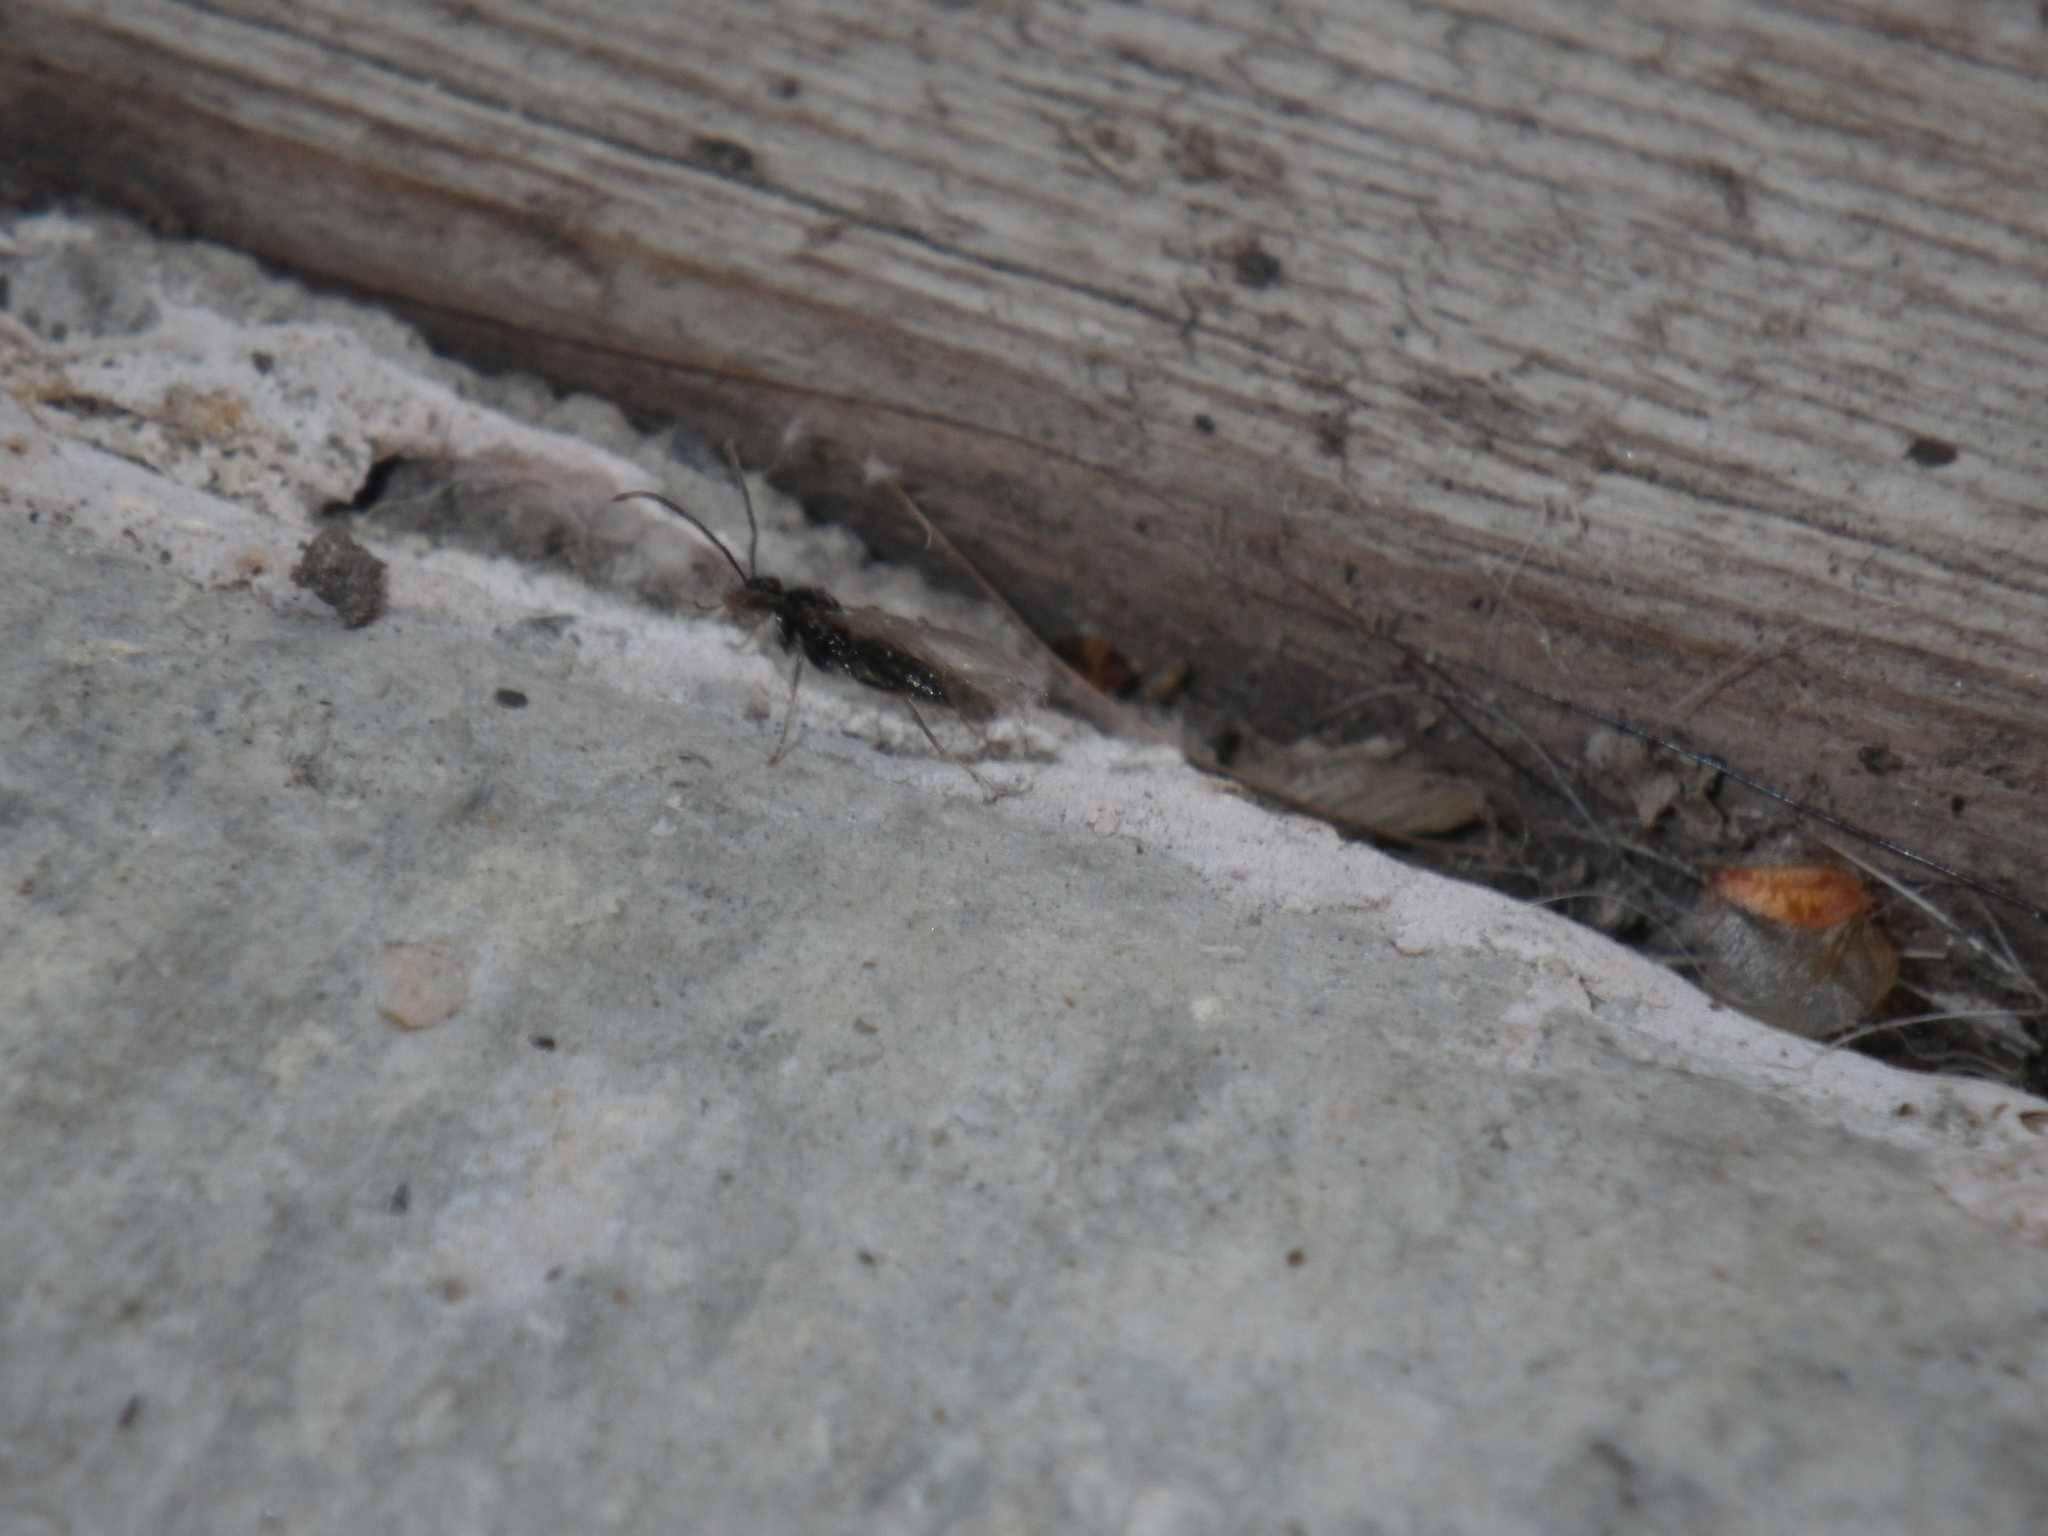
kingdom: Animalia
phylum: Arthropoda
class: Insecta
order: Hymenoptera
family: Formicidae
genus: Prenolepis
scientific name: Prenolepis imparis
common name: Small honey ant
